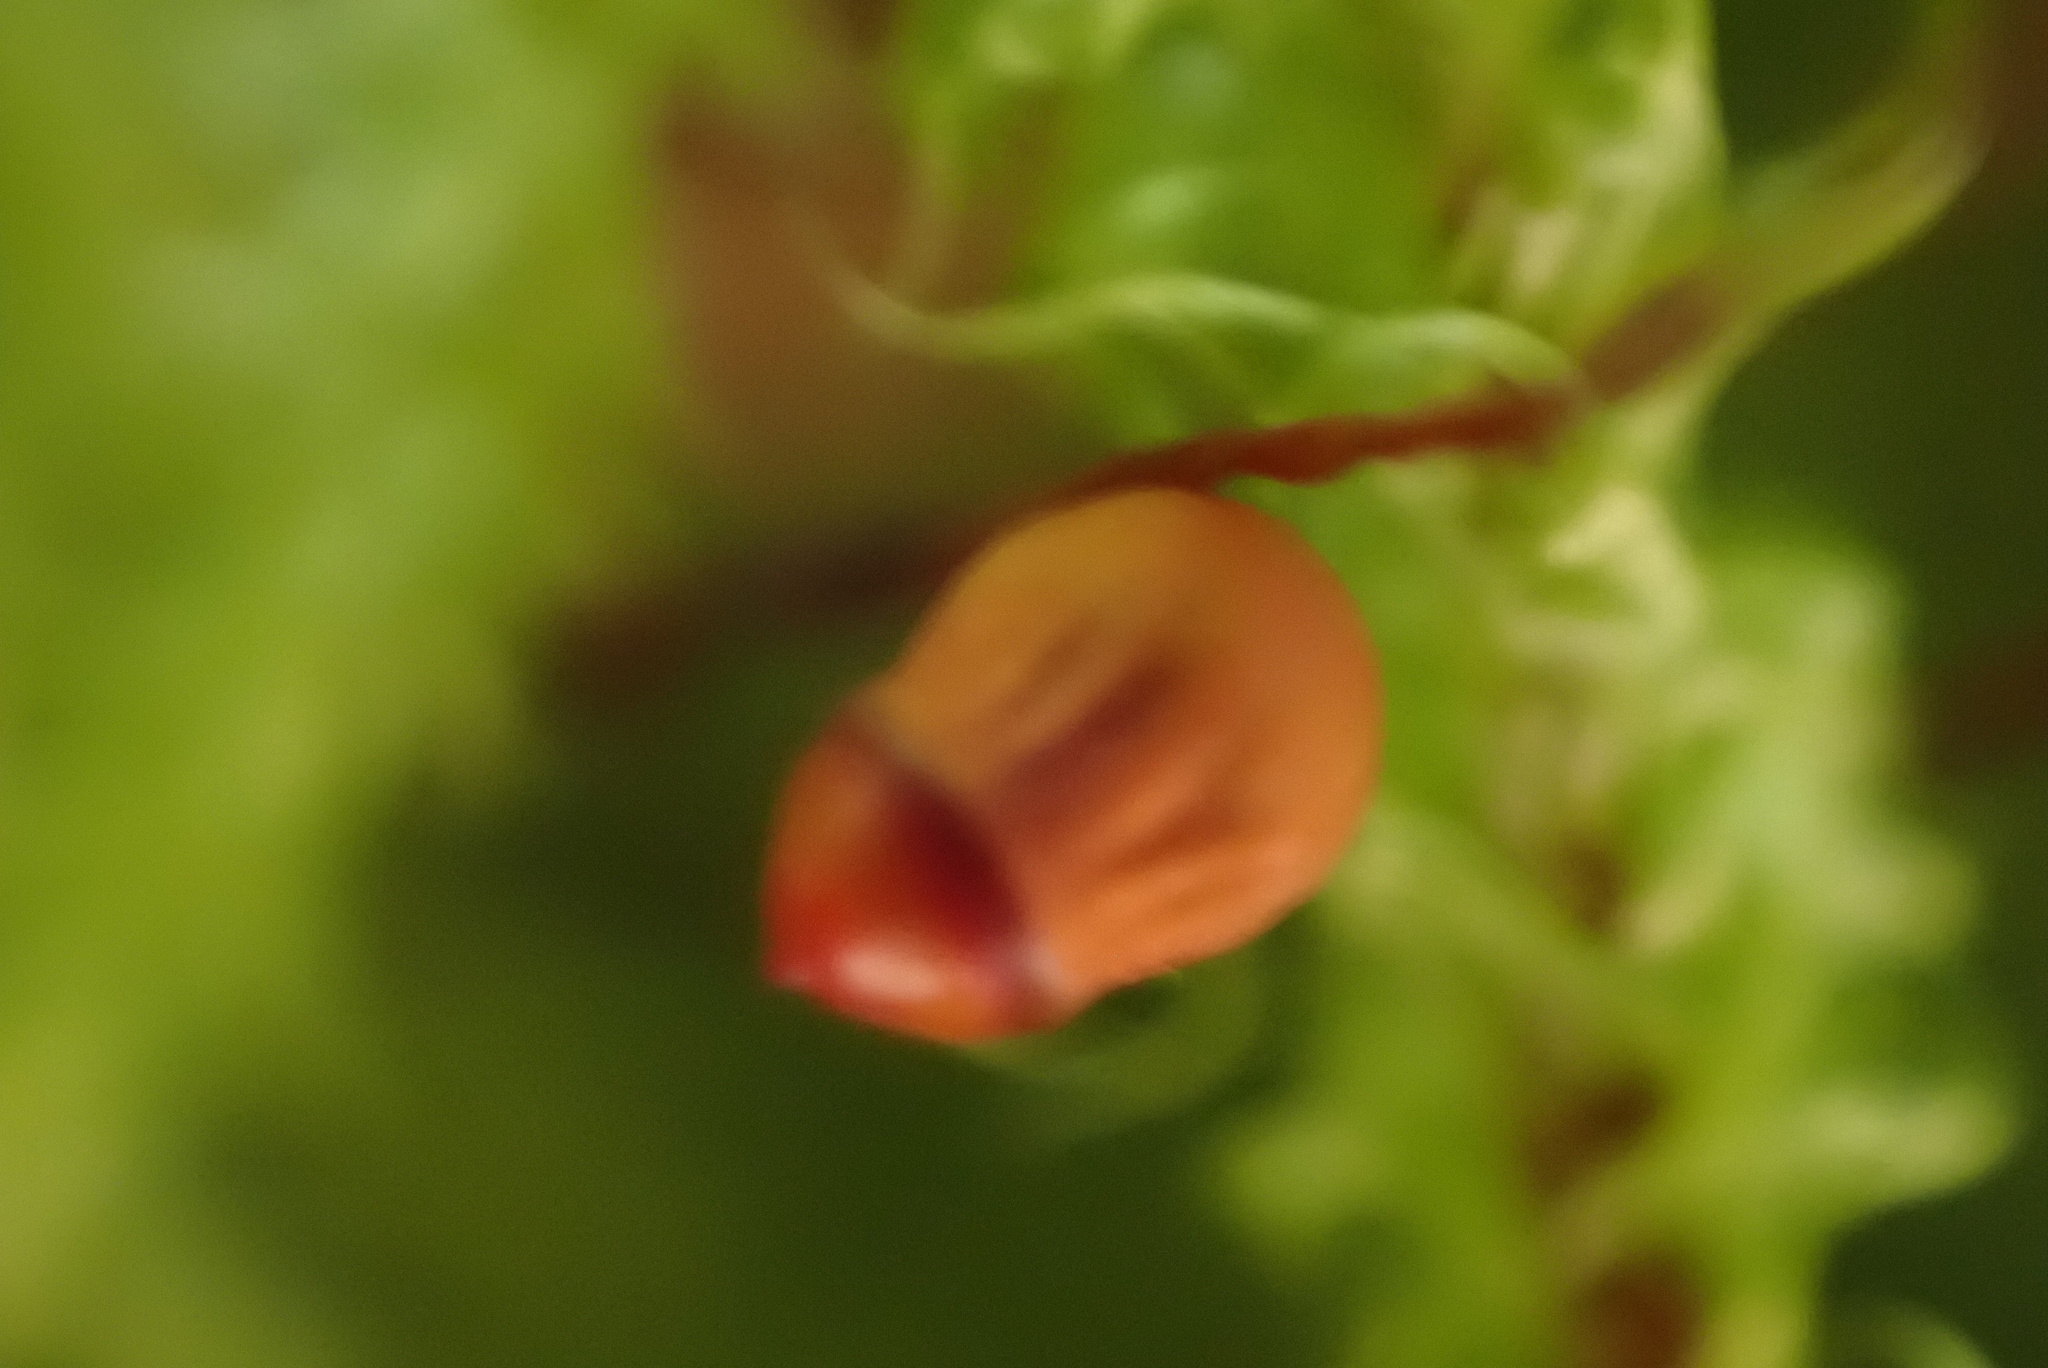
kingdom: Plantae
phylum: Bryophyta
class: Bryopsida
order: Hypnales
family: Hylocomiaceae
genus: Rhytidiadelphus
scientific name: Rhytidiadelphus loreus
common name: Lanky moss
